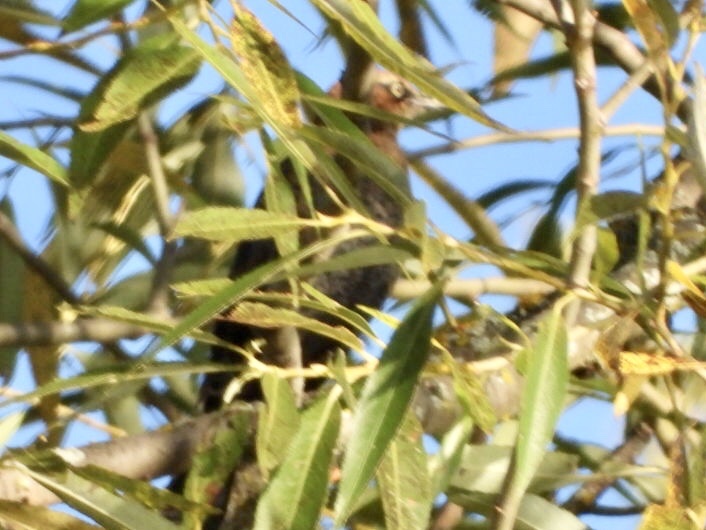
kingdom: Animalia
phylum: Chordata
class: Aves
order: Passeriformes
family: Icteridae
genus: Euphagus
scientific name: Euphagus carolinus
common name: Rusty blackbird
